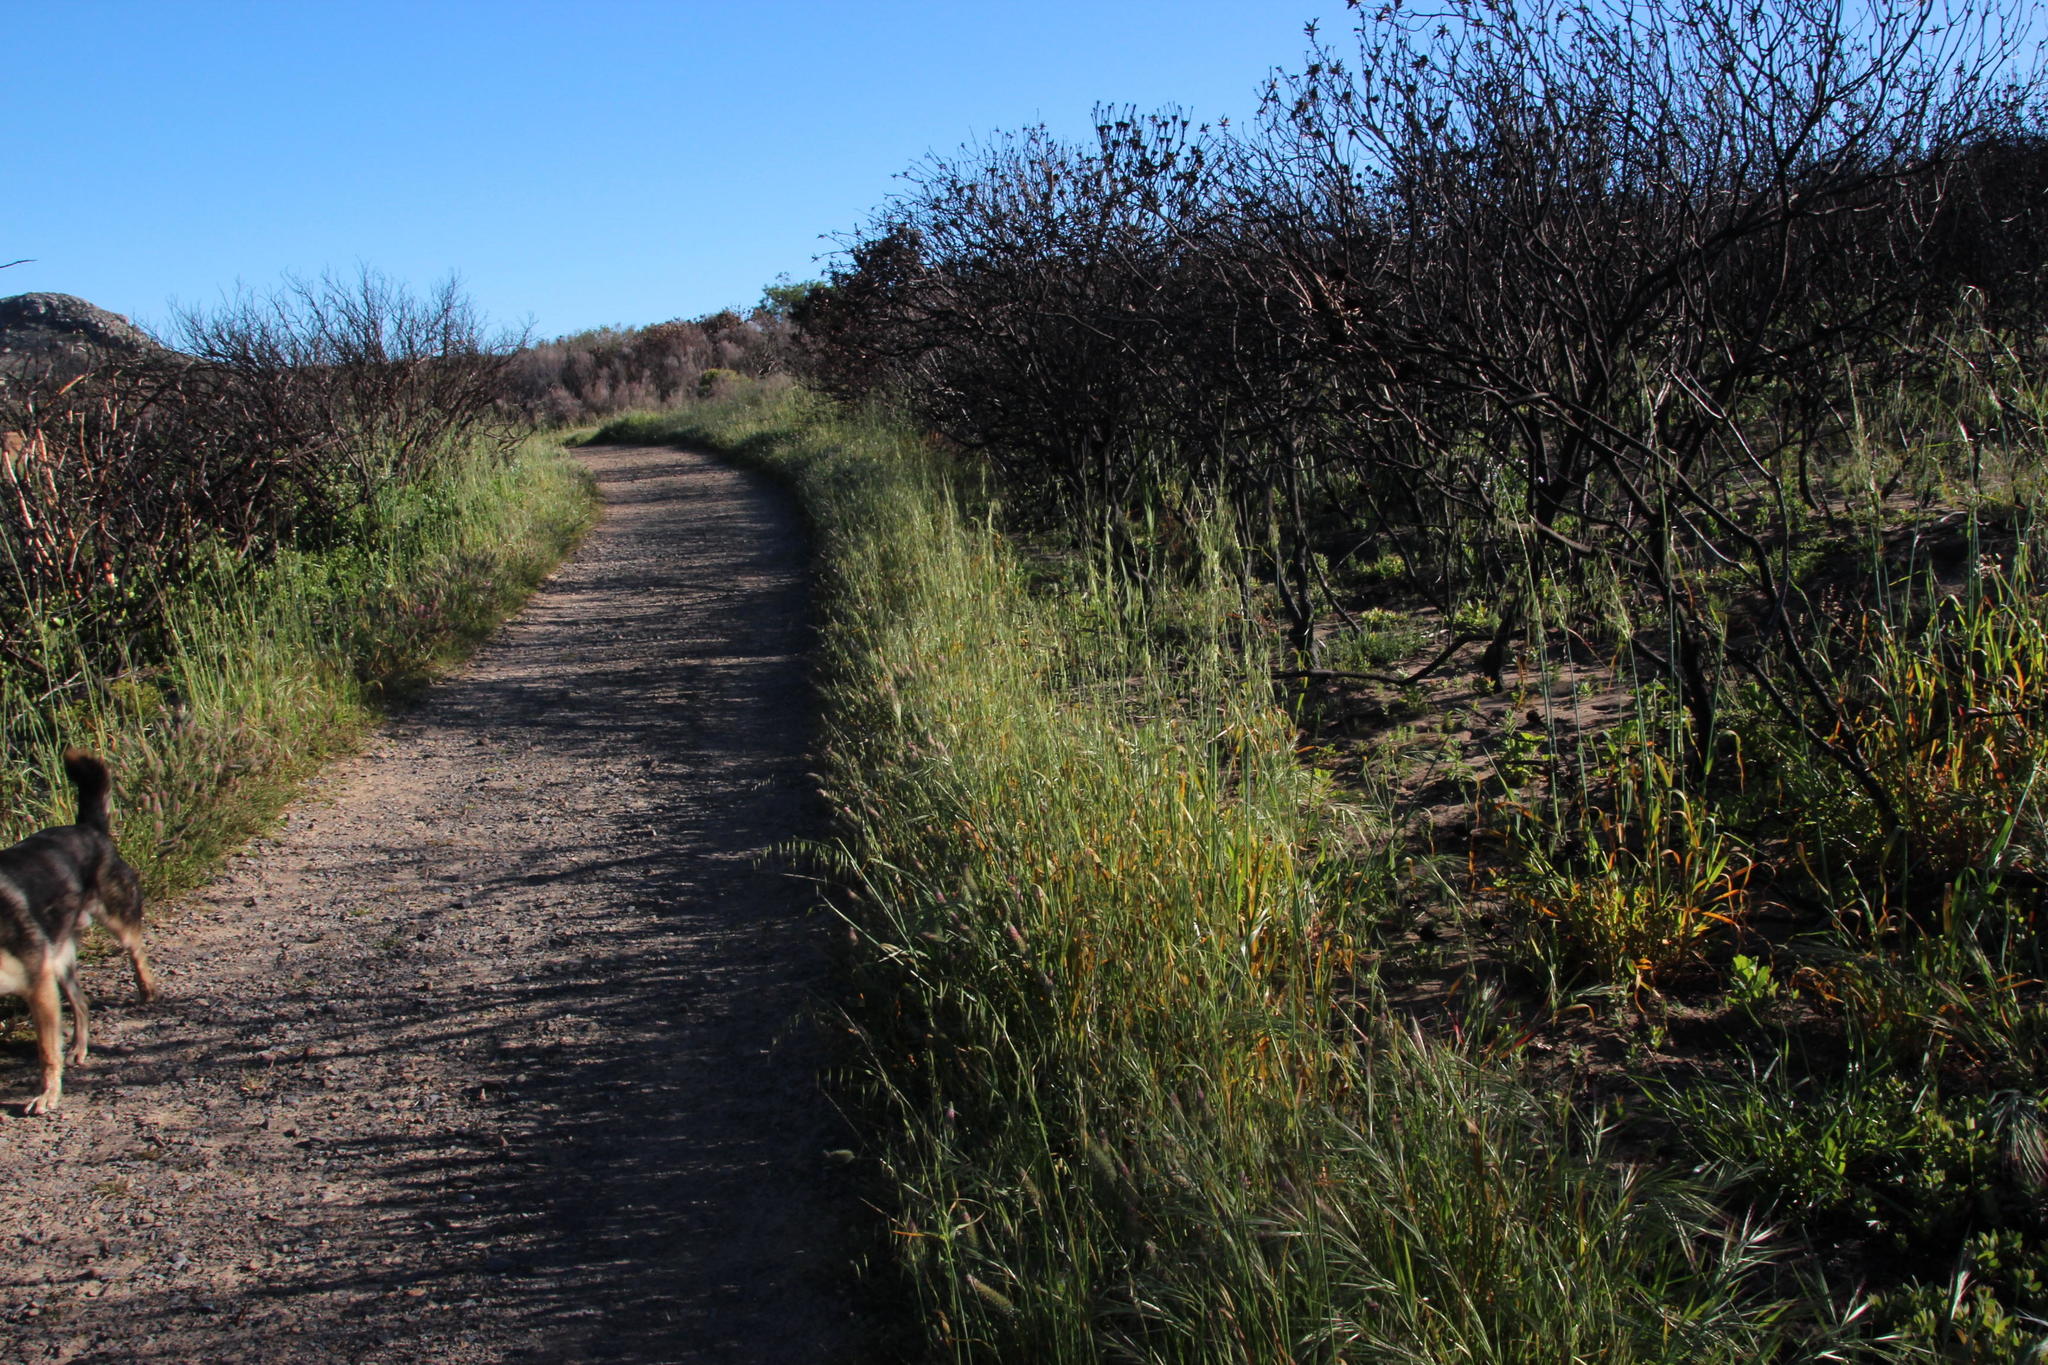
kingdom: Plantae
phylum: Tracheophyta
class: Liliopsida
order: Poales
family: Poaceae
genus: Avena
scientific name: Avena fatua
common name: Wild oat
